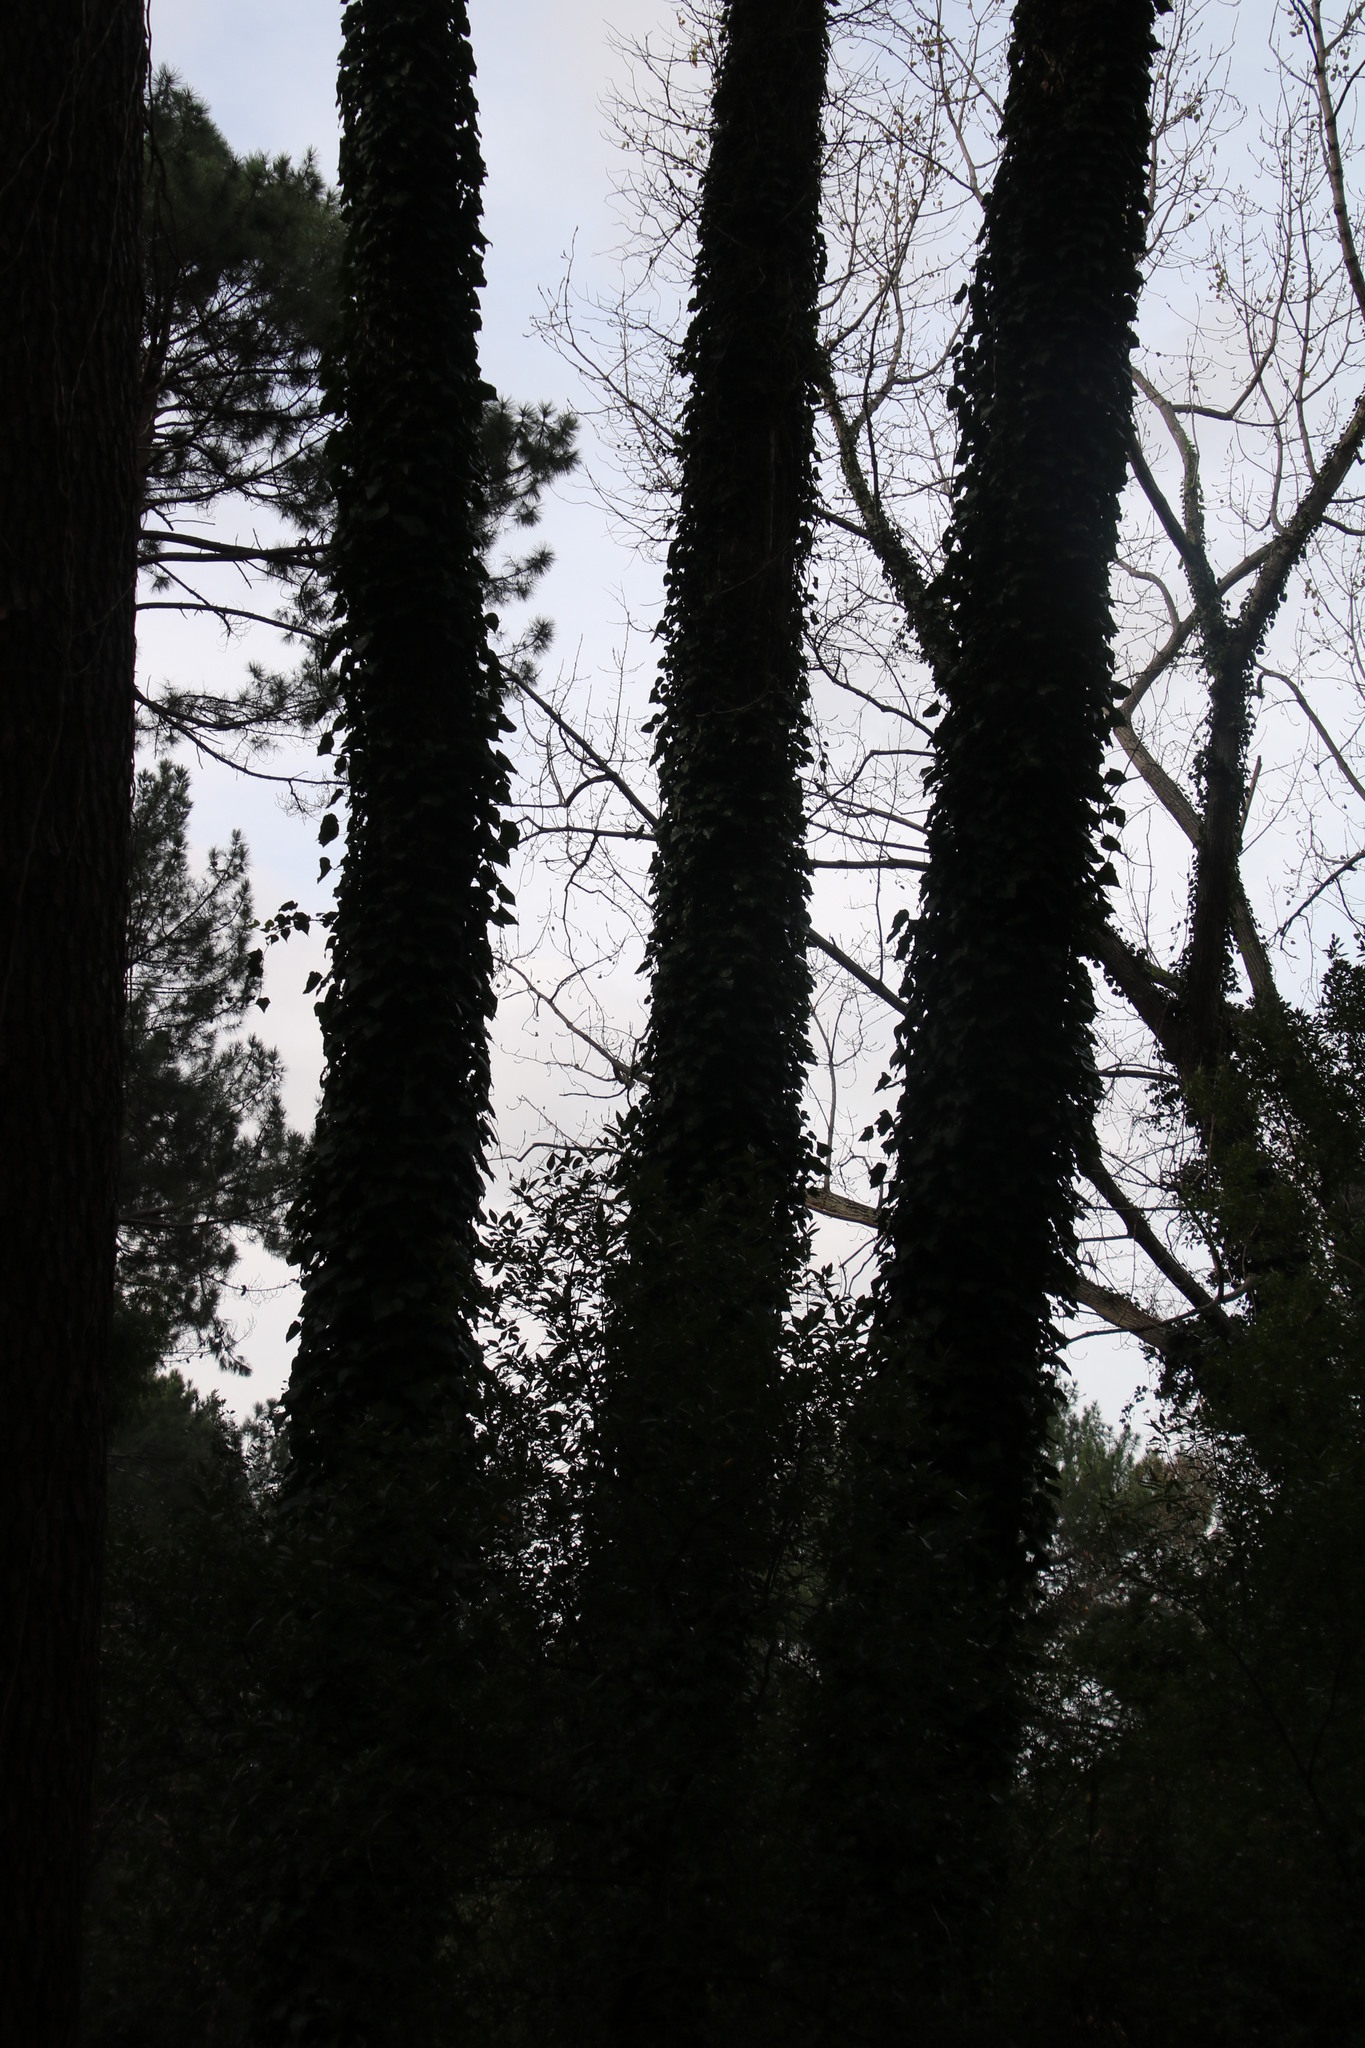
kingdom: Plantae
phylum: Tracheophyta
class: Magnoliopsida
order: Apiales
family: Araliaceae
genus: Hedera
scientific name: Hedera helix
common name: Ivy
